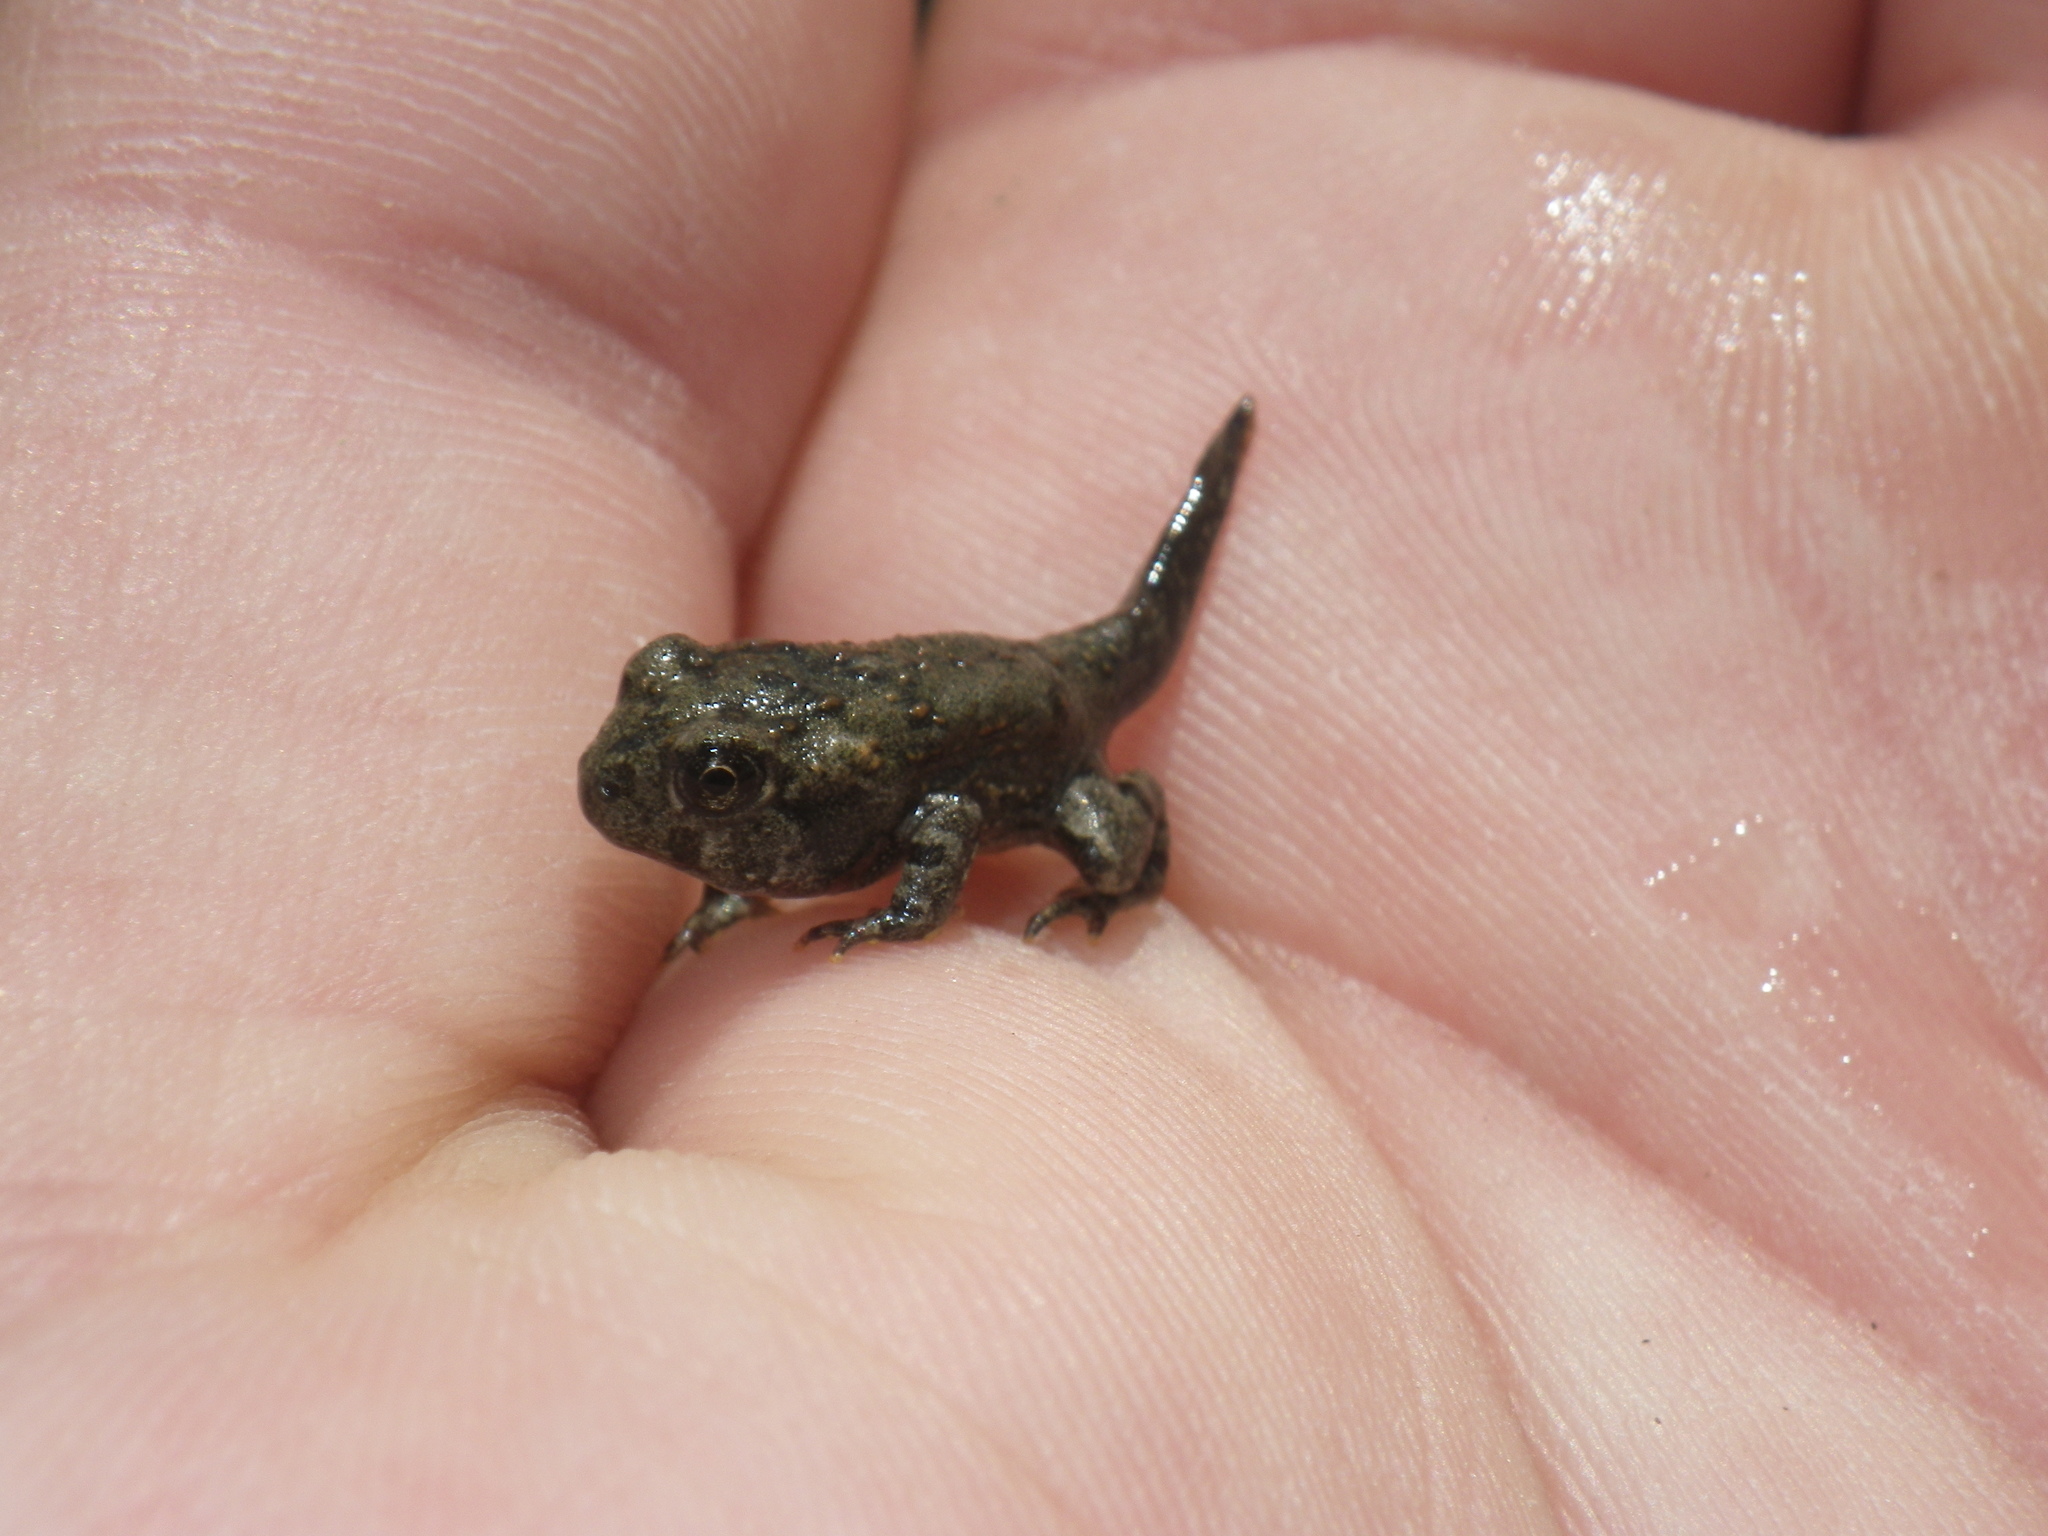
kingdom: Animalia
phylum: Chordata
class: Amphibia
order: Anura
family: Bufonidae
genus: Anaxyrus
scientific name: Anaxyrus boreas
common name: Western toad
